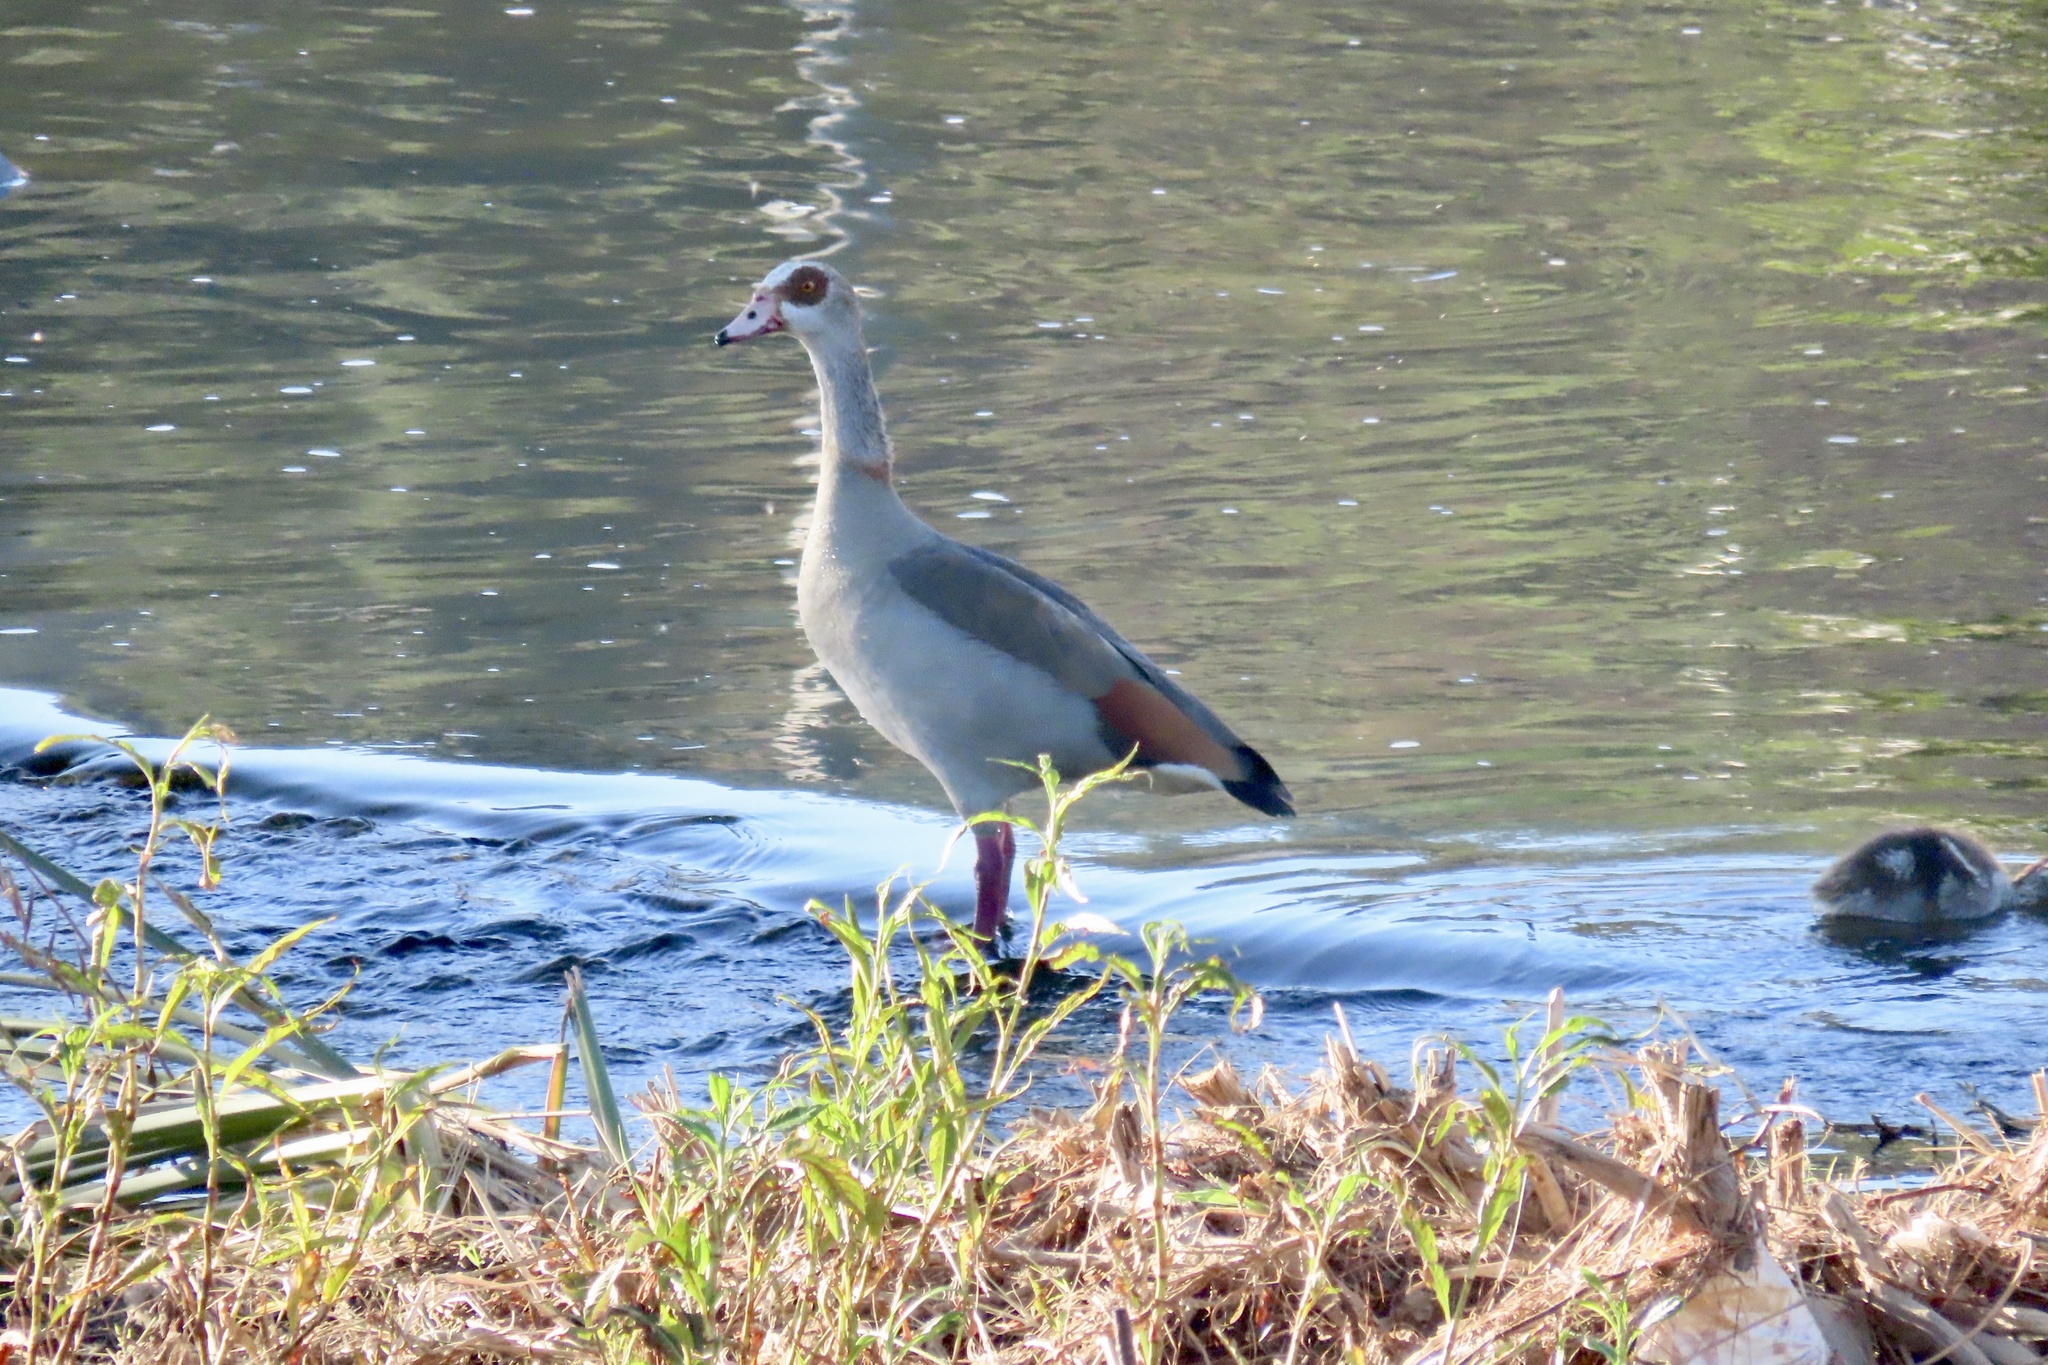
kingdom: Animalia
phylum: Chordata
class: Aves
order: Anseriformes
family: Anatidae
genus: Alopochen
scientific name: Alopochen aegyptiaca
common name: Egyptian goose
